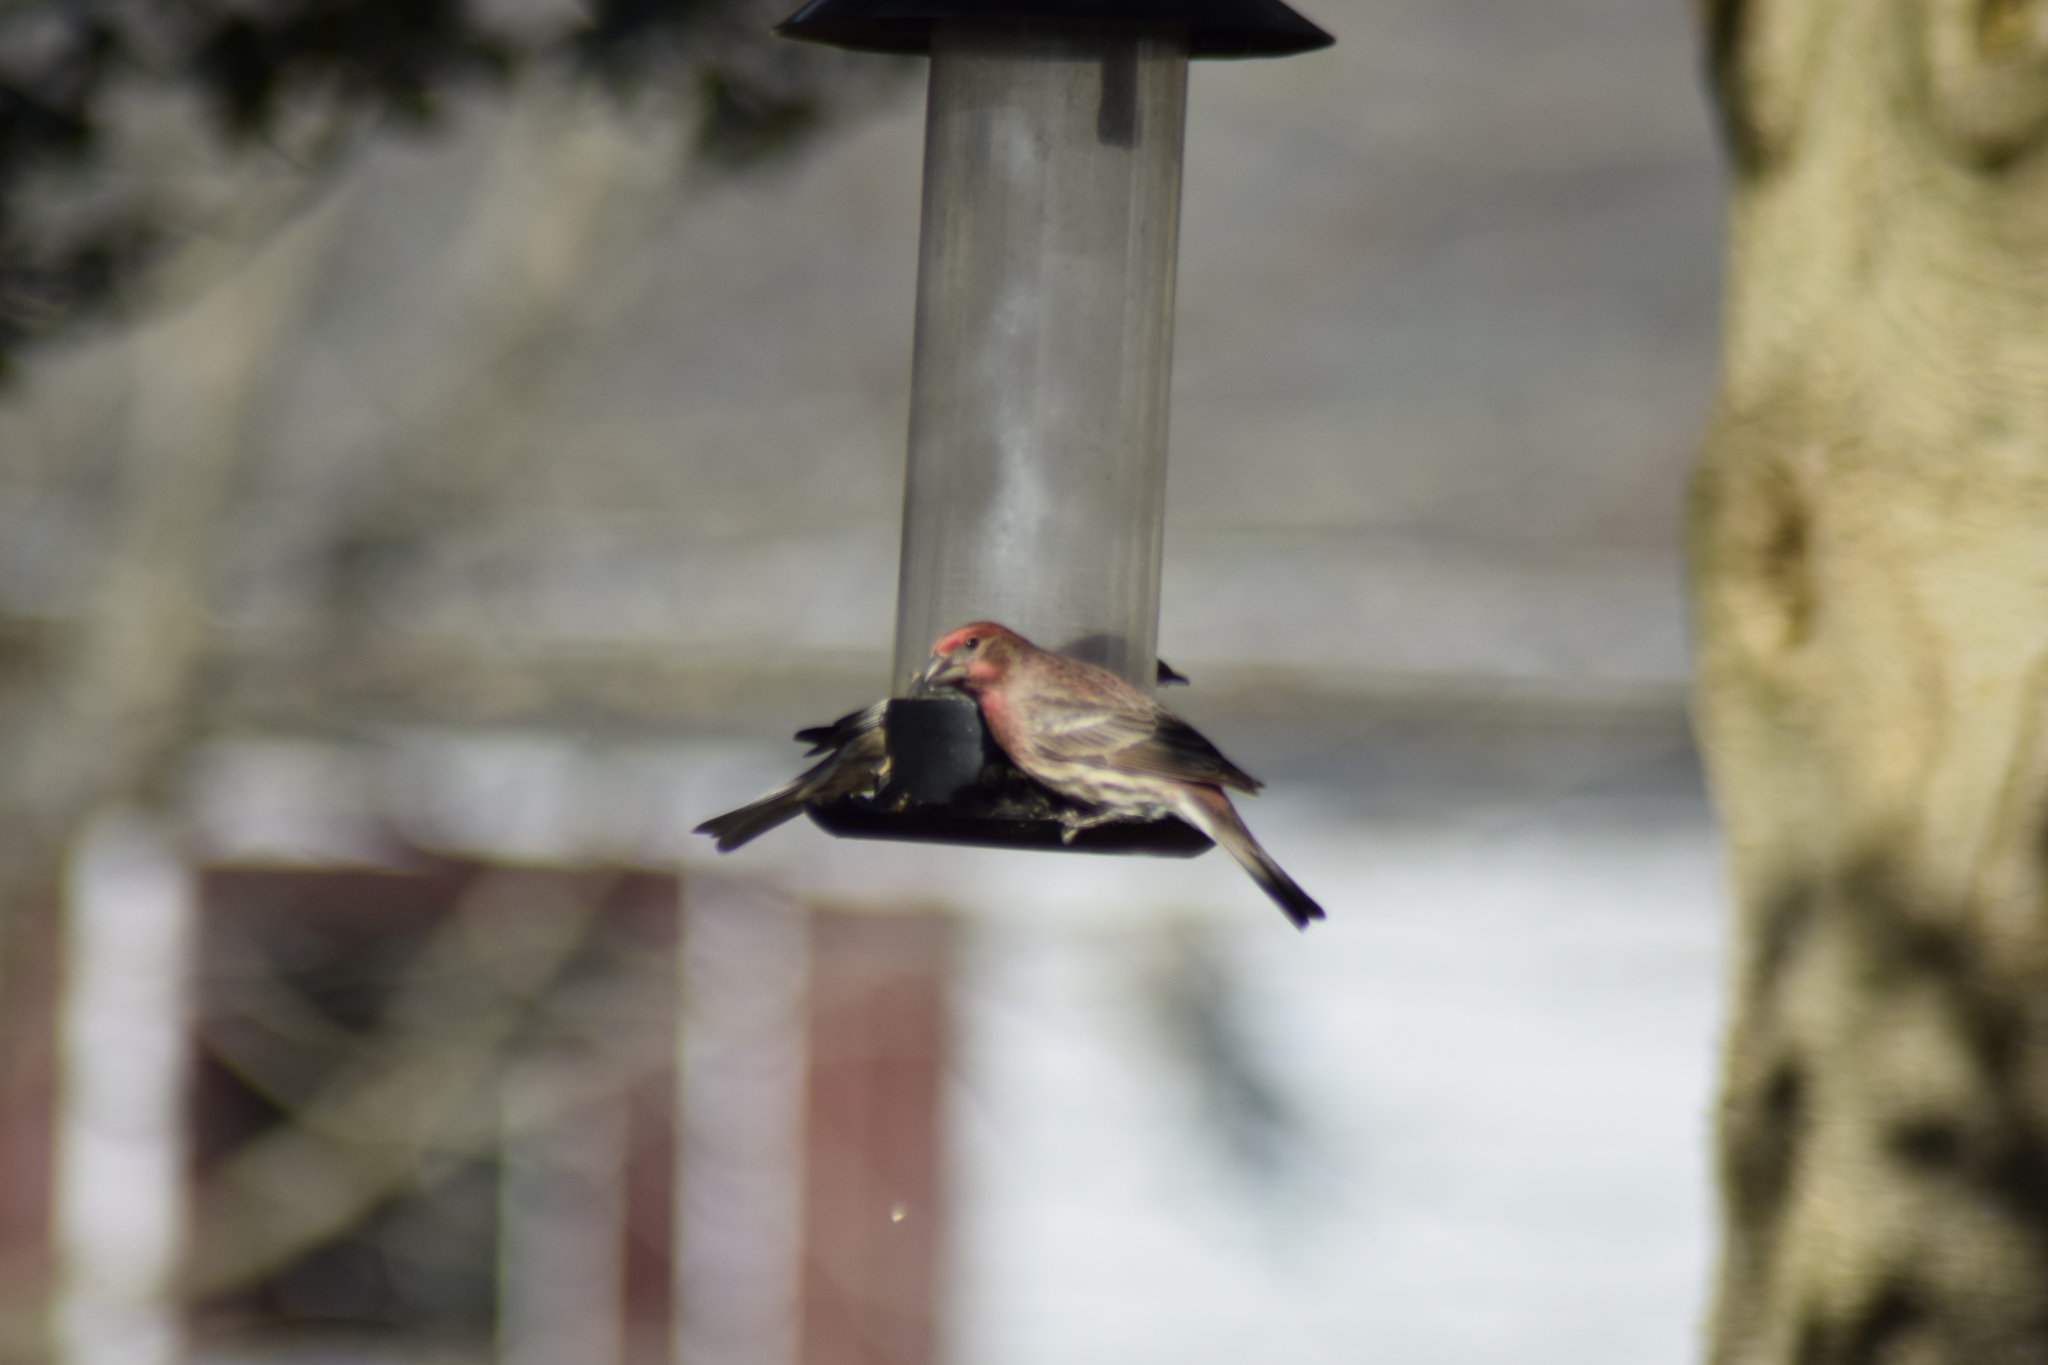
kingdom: Animalia
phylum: Chordata
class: Aves
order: Passeriformes
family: Fringillidae
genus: Haemorhous
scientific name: Haemorhous mexicanus
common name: House finch
